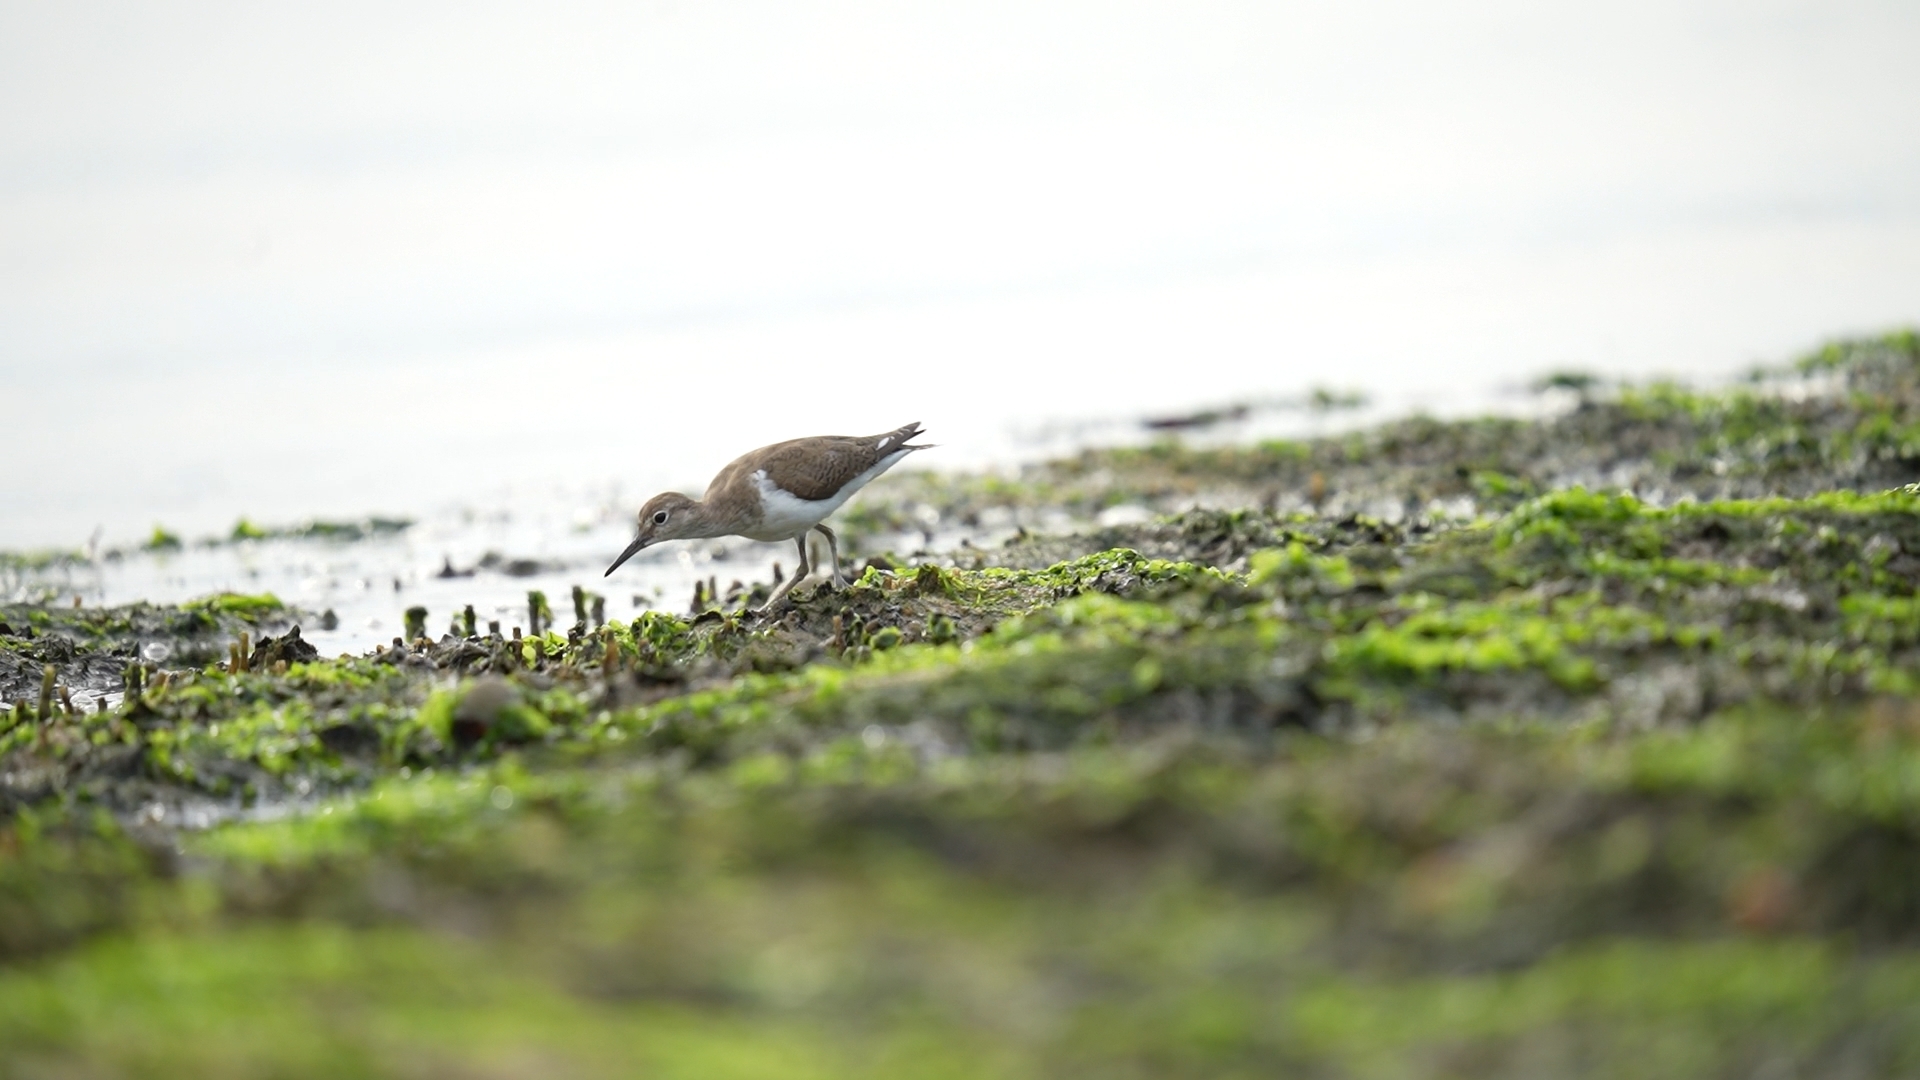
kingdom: Animalia
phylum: Chordata
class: Aves
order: Charadriiformes
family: Scolopacidae
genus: Actitis
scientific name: Actitis hypoleucos
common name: Common sandpiper
